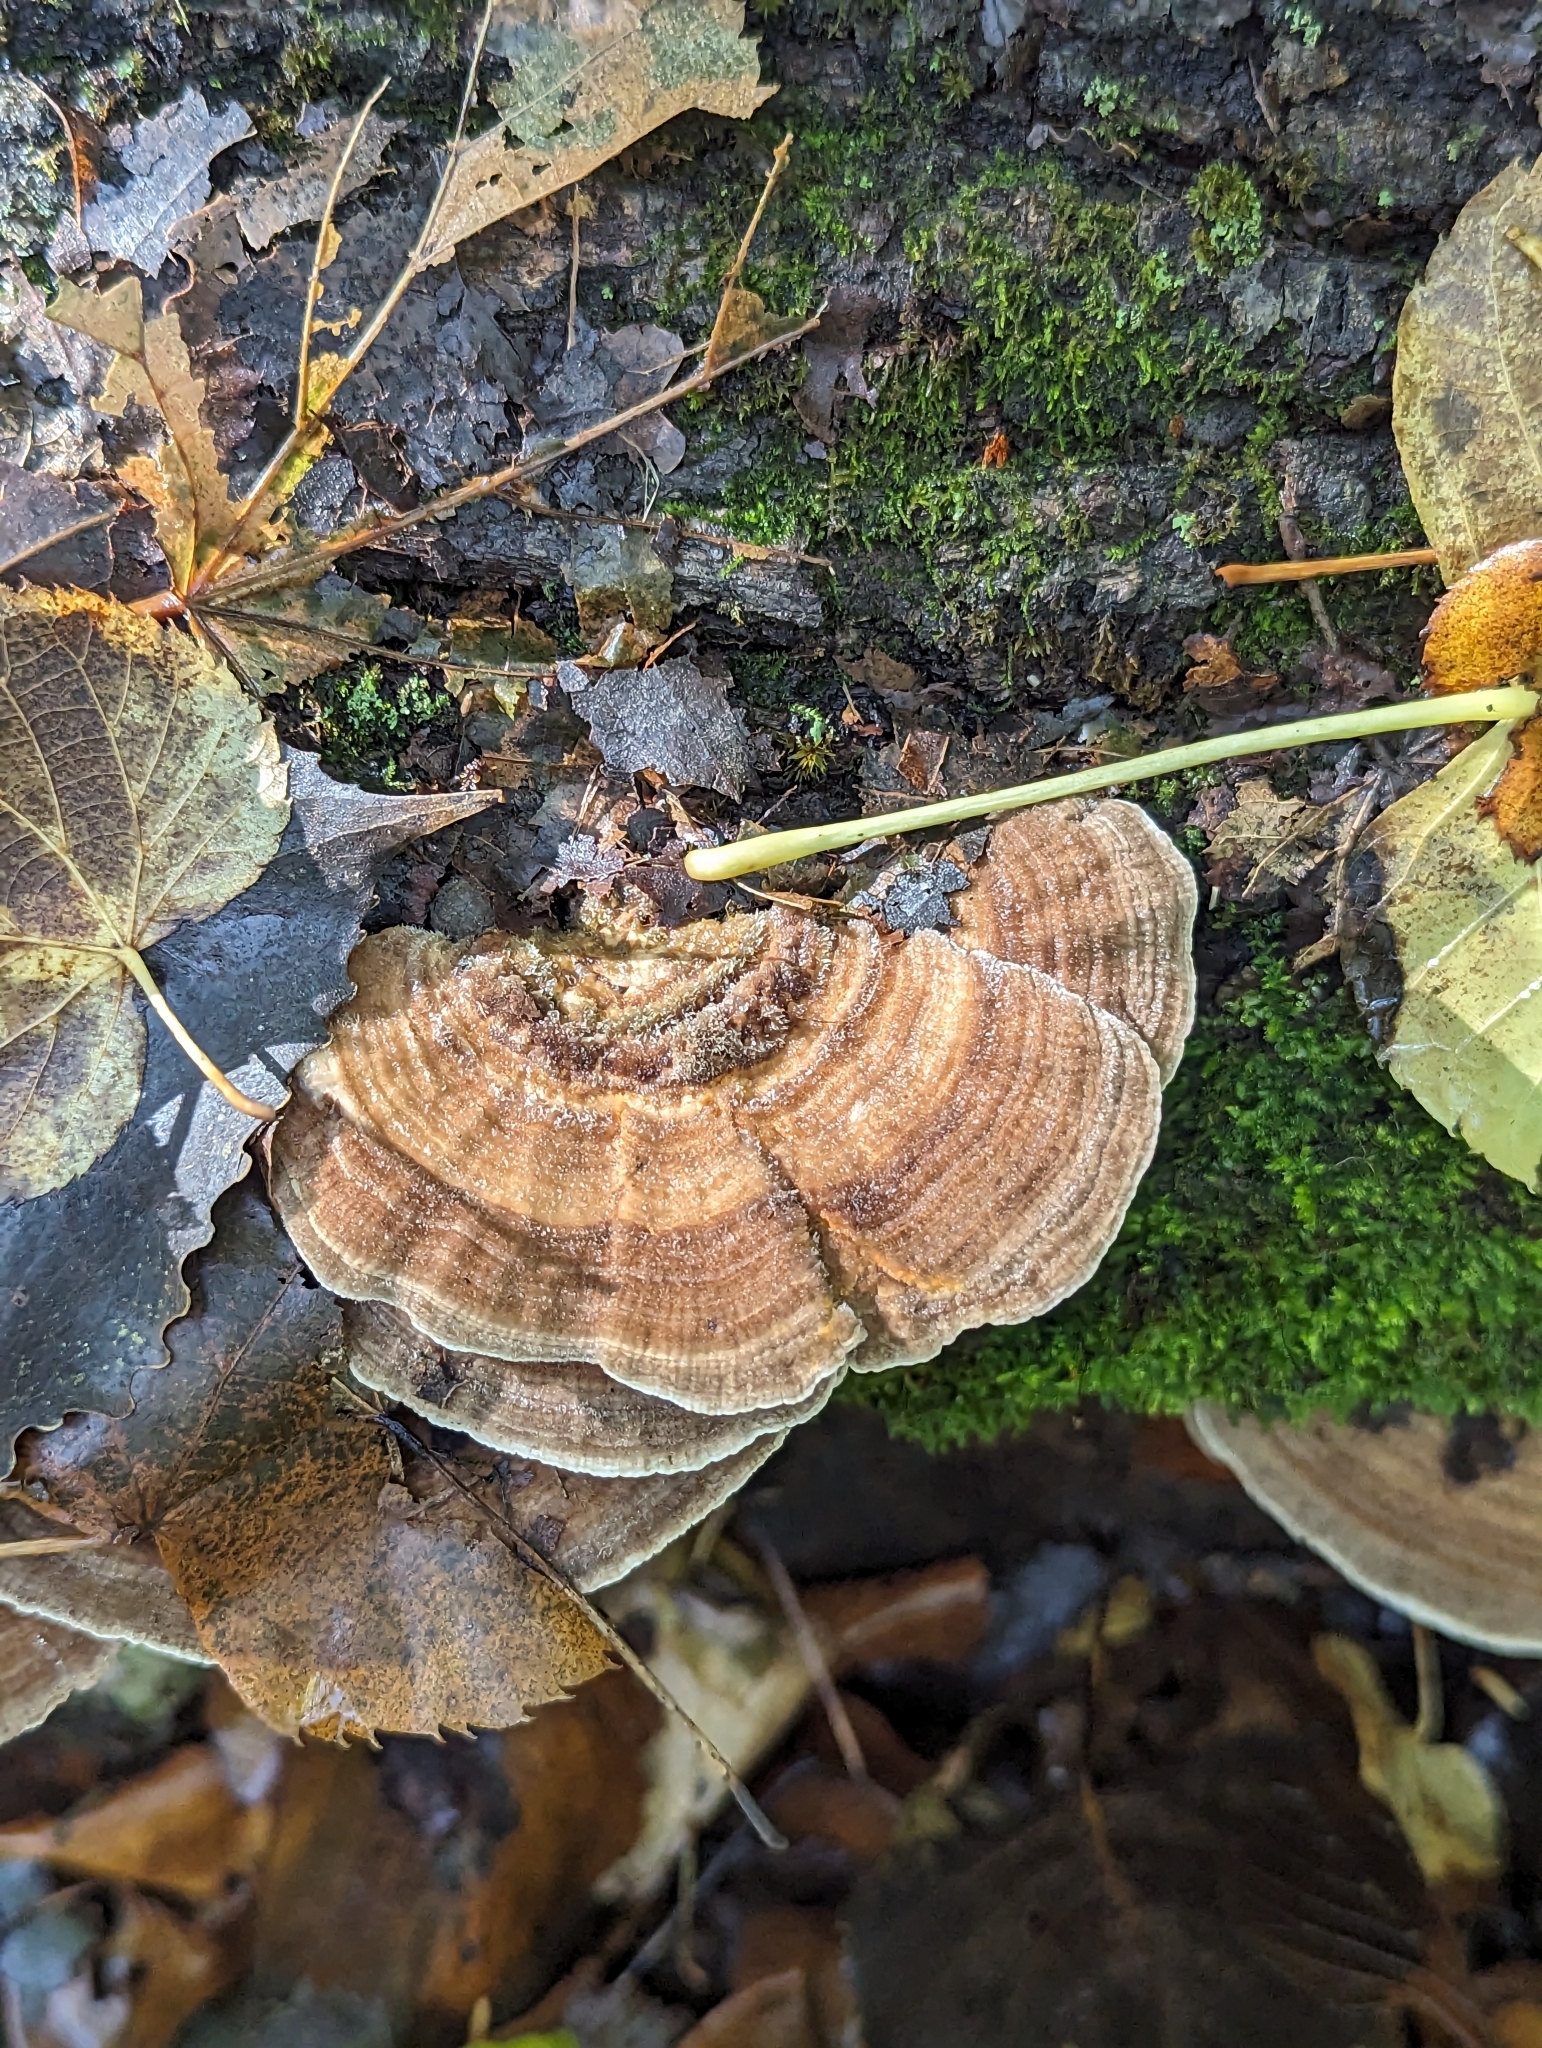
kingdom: Fungi
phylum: Basidiomycota
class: Agaricomycetes
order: Polyporales
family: Polyporaceae
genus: Lenzites
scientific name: Lenzites betulinus
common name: Birch mazegill
